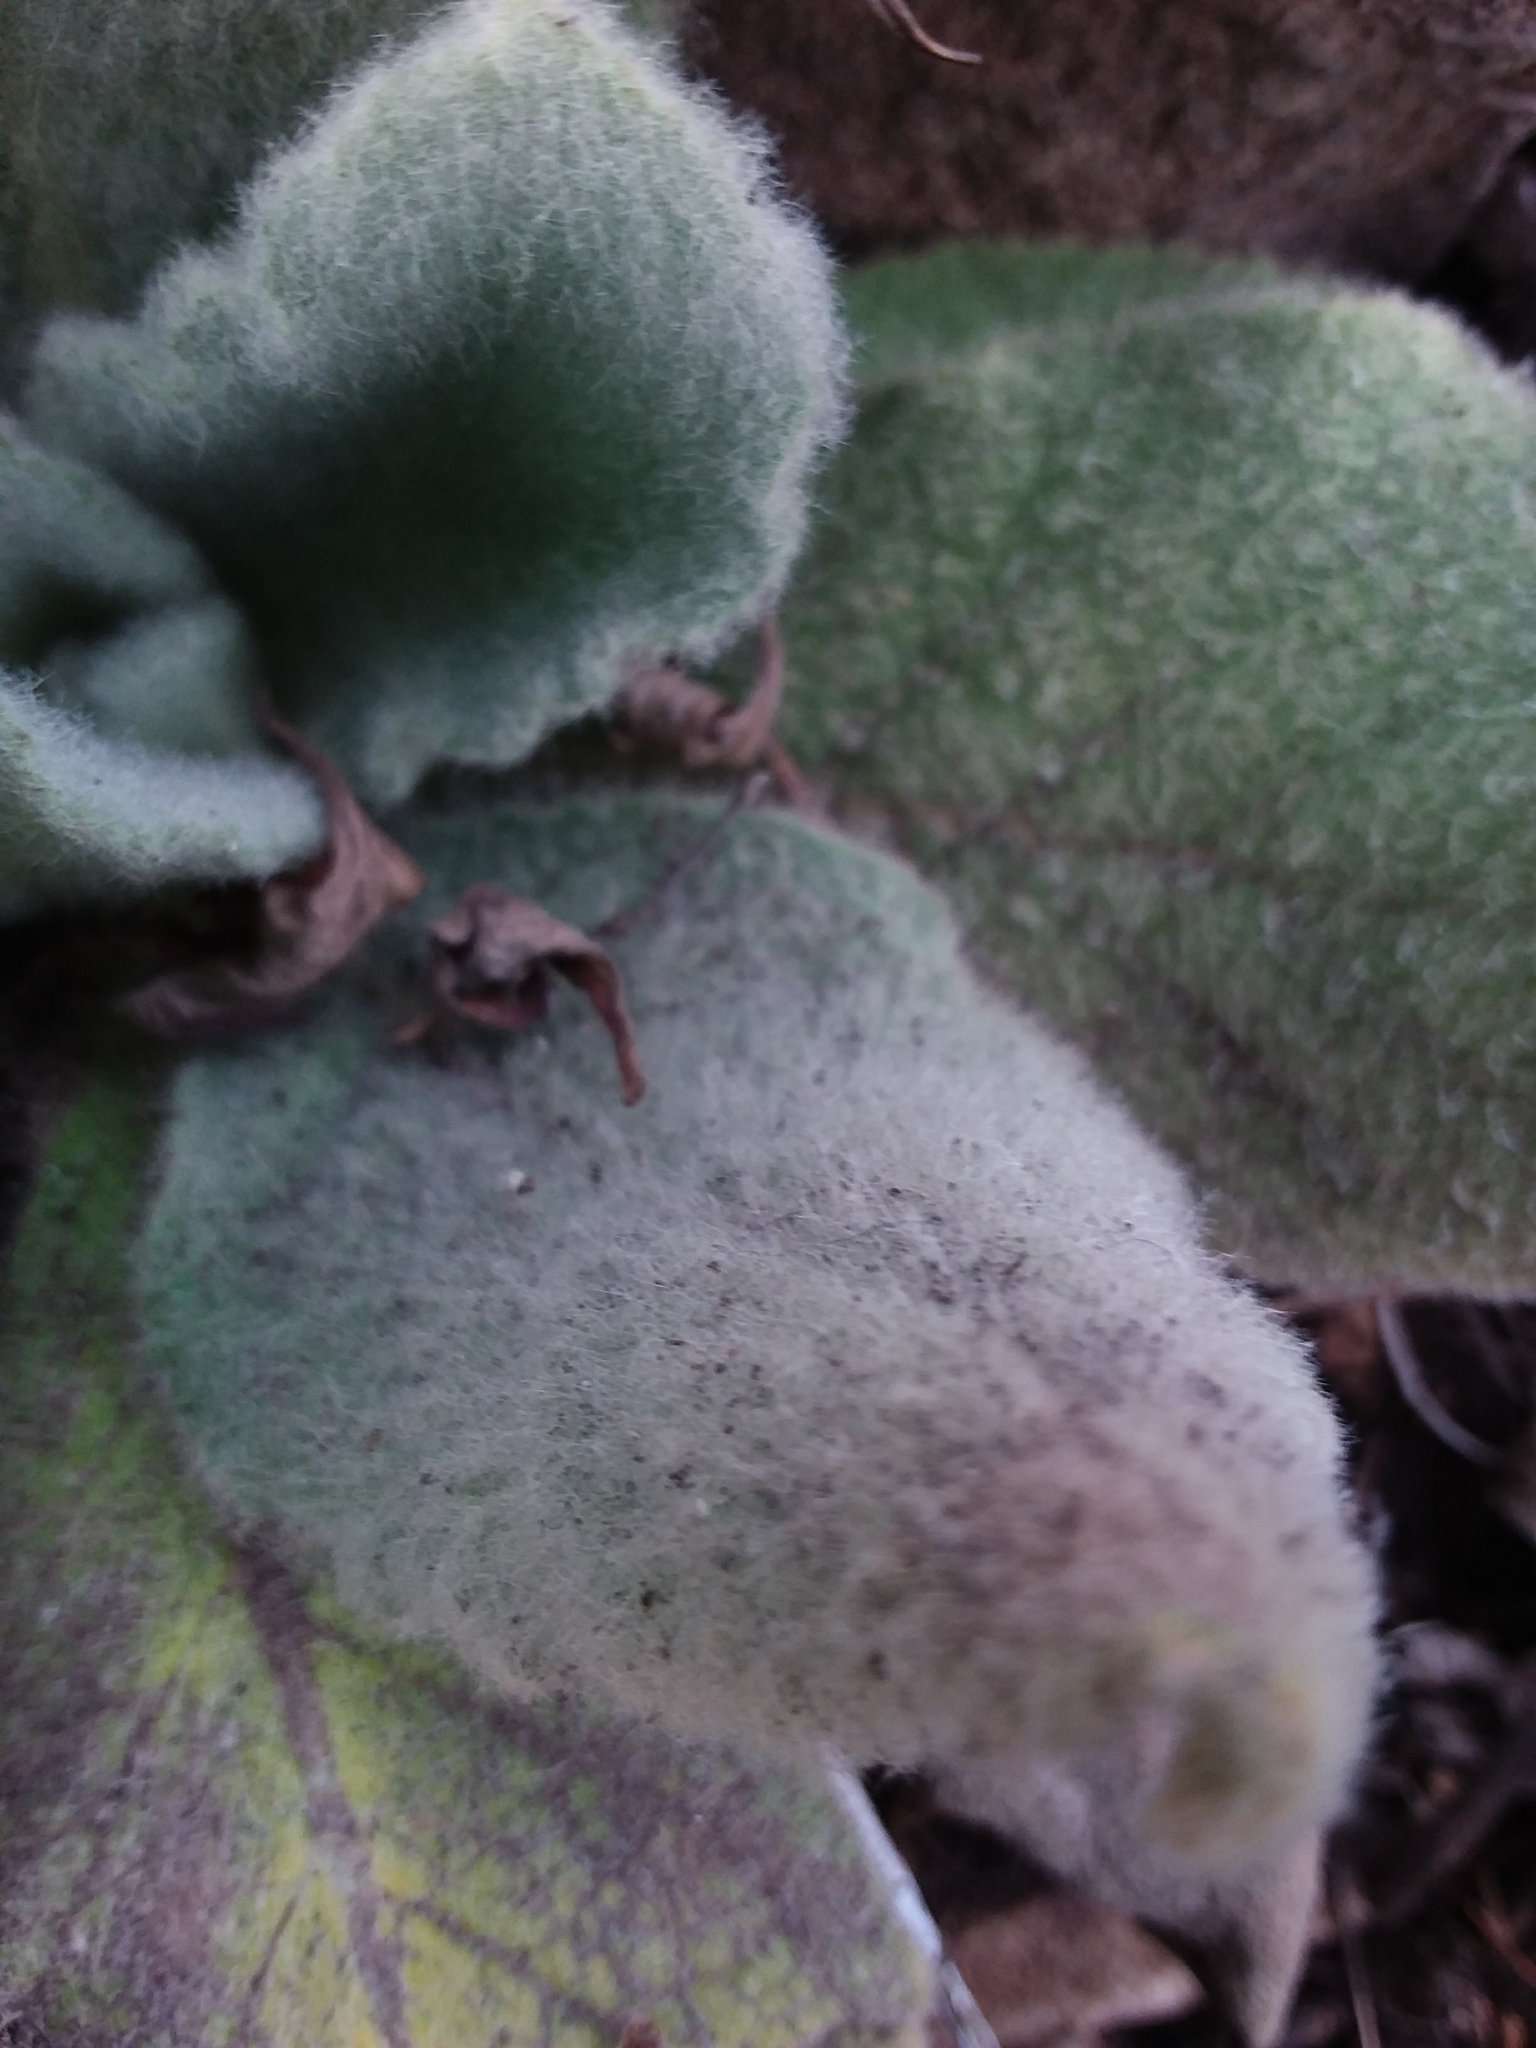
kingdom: Plantae
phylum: Tracheophyta
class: Magnoliopsida
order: Lamiales
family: Scrophulariaceae
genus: Verbascum
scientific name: Verbascum thapsus
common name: Common mullein
